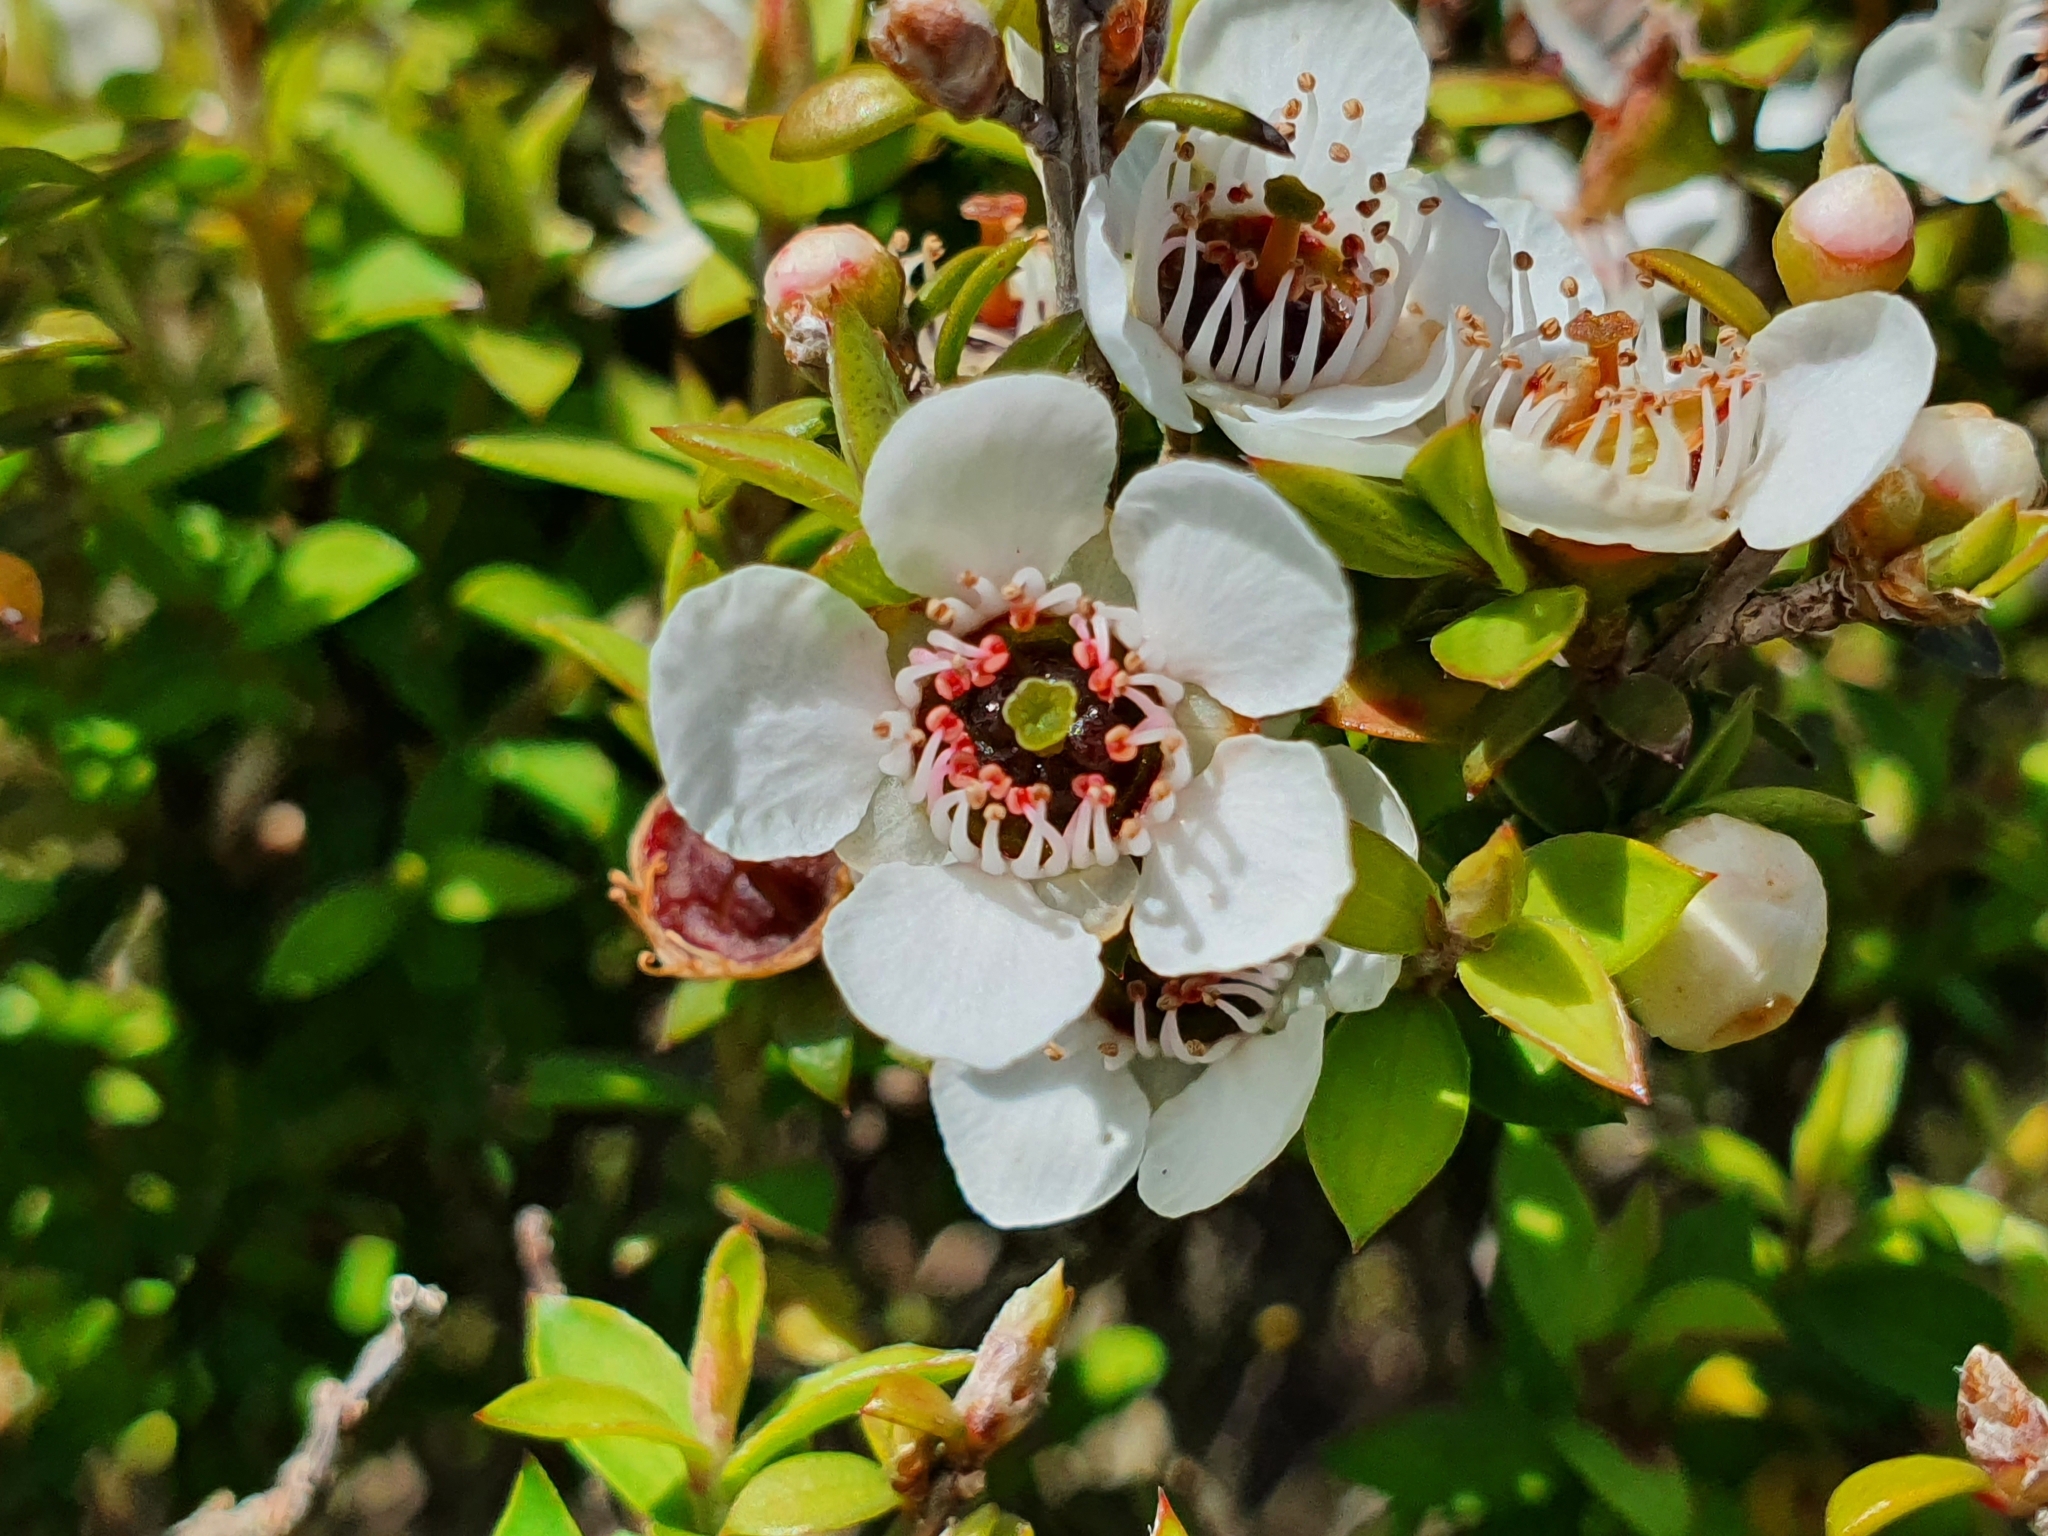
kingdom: Plantae
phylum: Tracheophyta
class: Magnoliopsida
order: Myrtales
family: Myrtaceae
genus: Leptospermum
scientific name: Leptospermum scoparium
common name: Broom tea-tree
